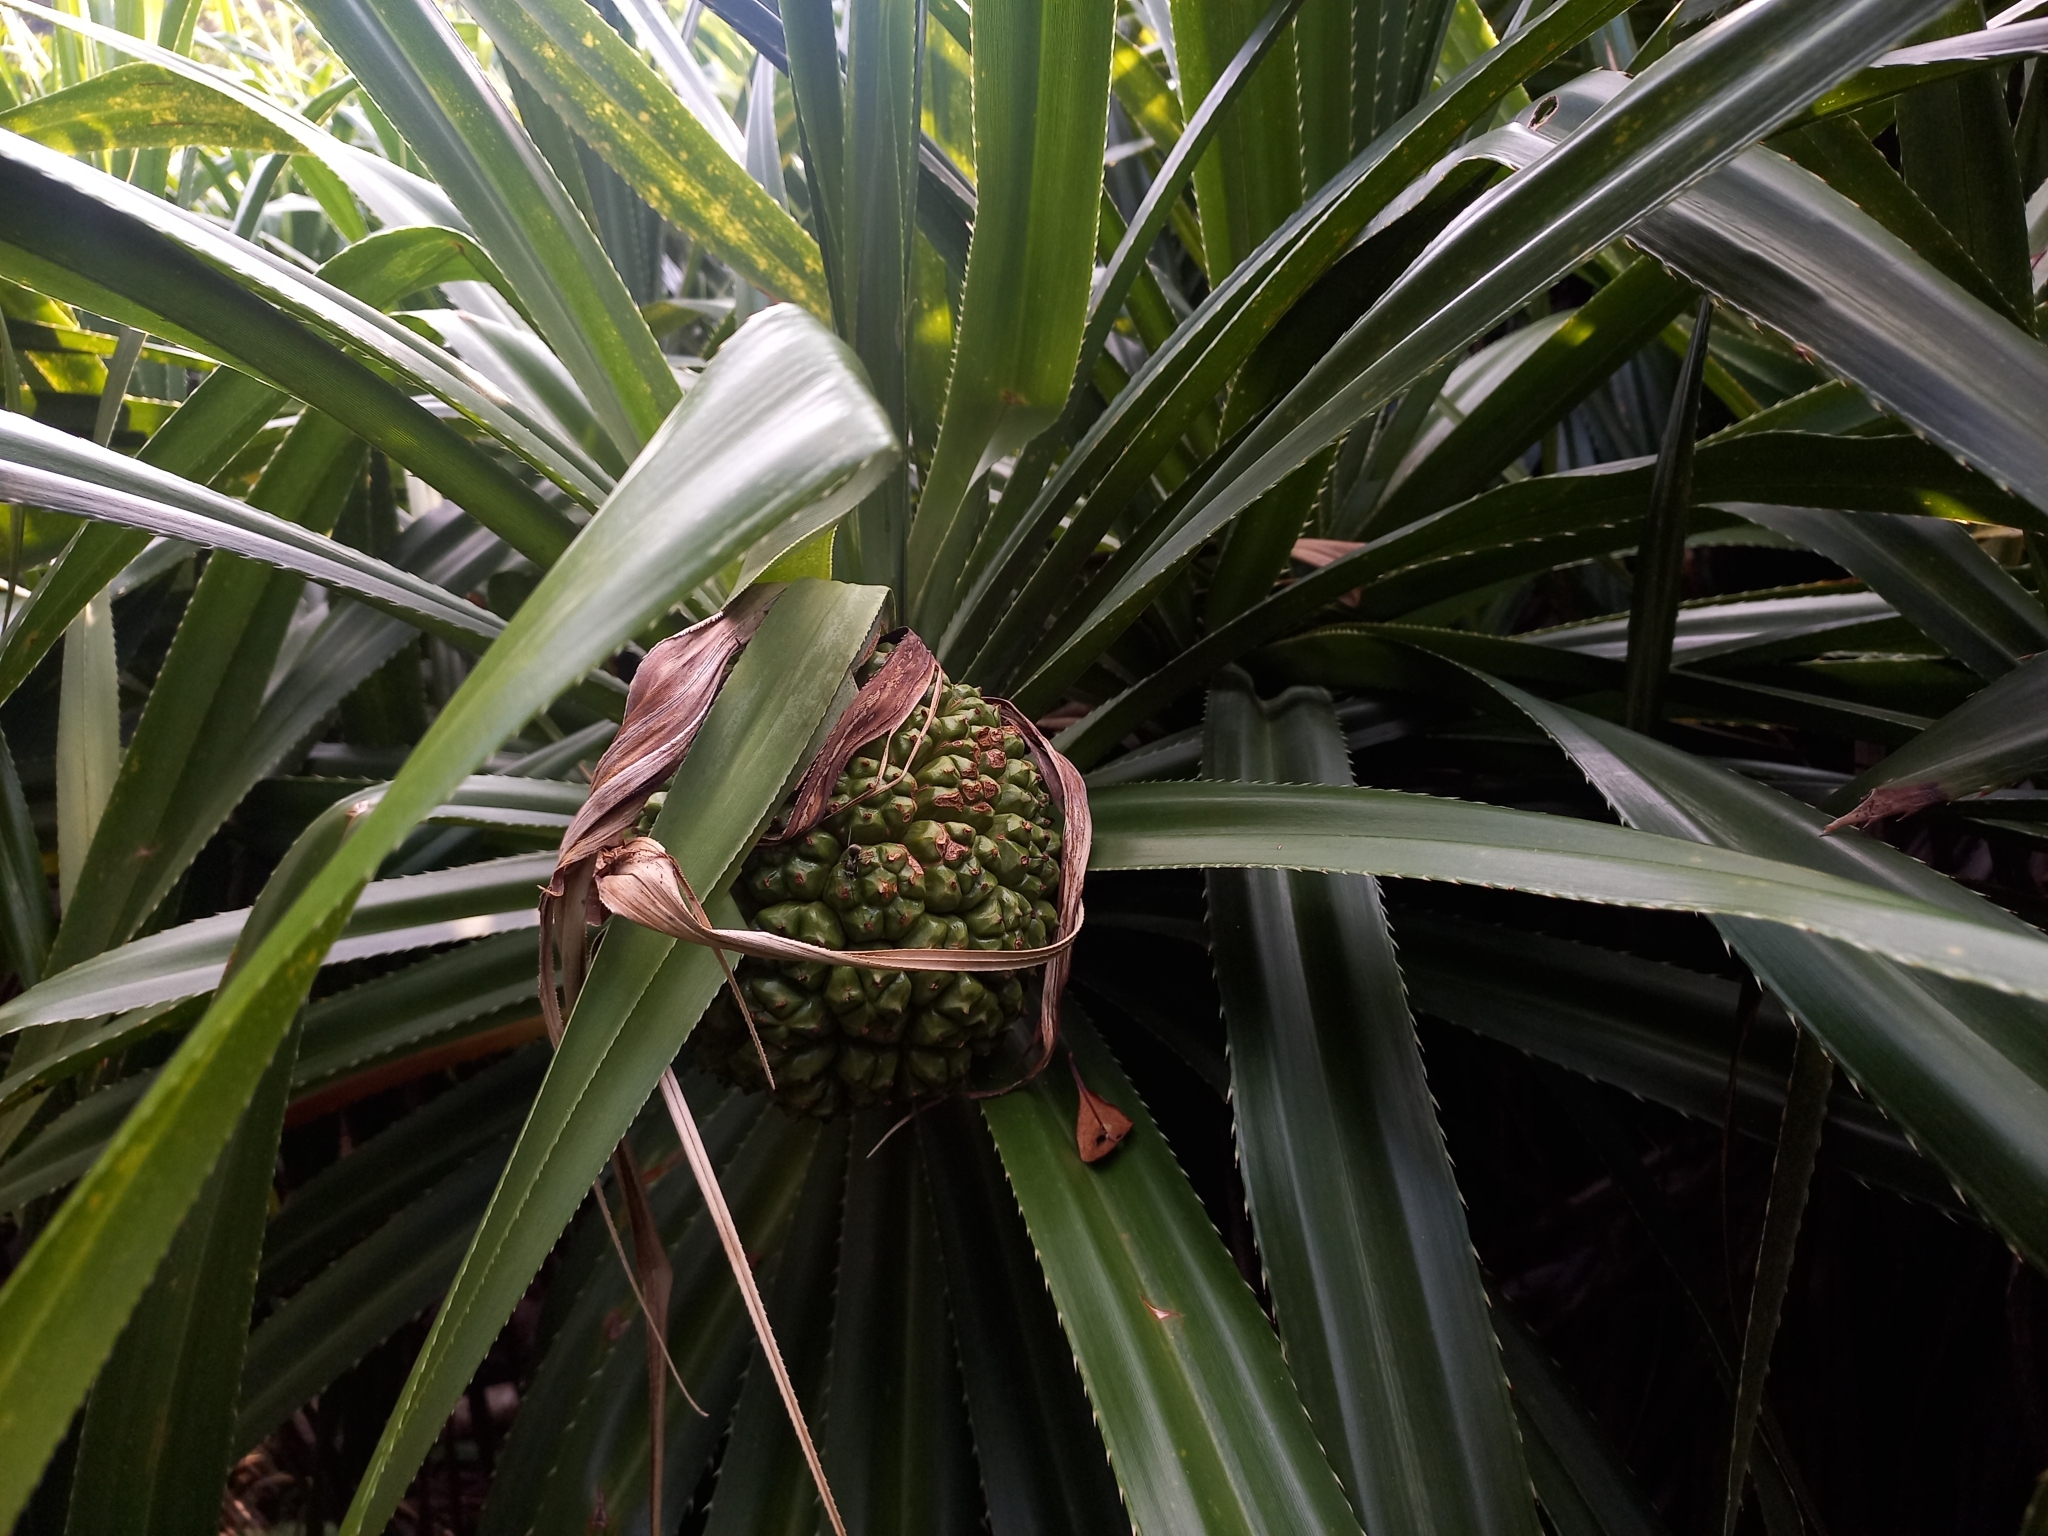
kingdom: Plantae
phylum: Tracheophyta
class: Liliopsida
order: Pandanales
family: Pandanaceae
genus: Pandanus
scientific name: Pandanus tectorius
